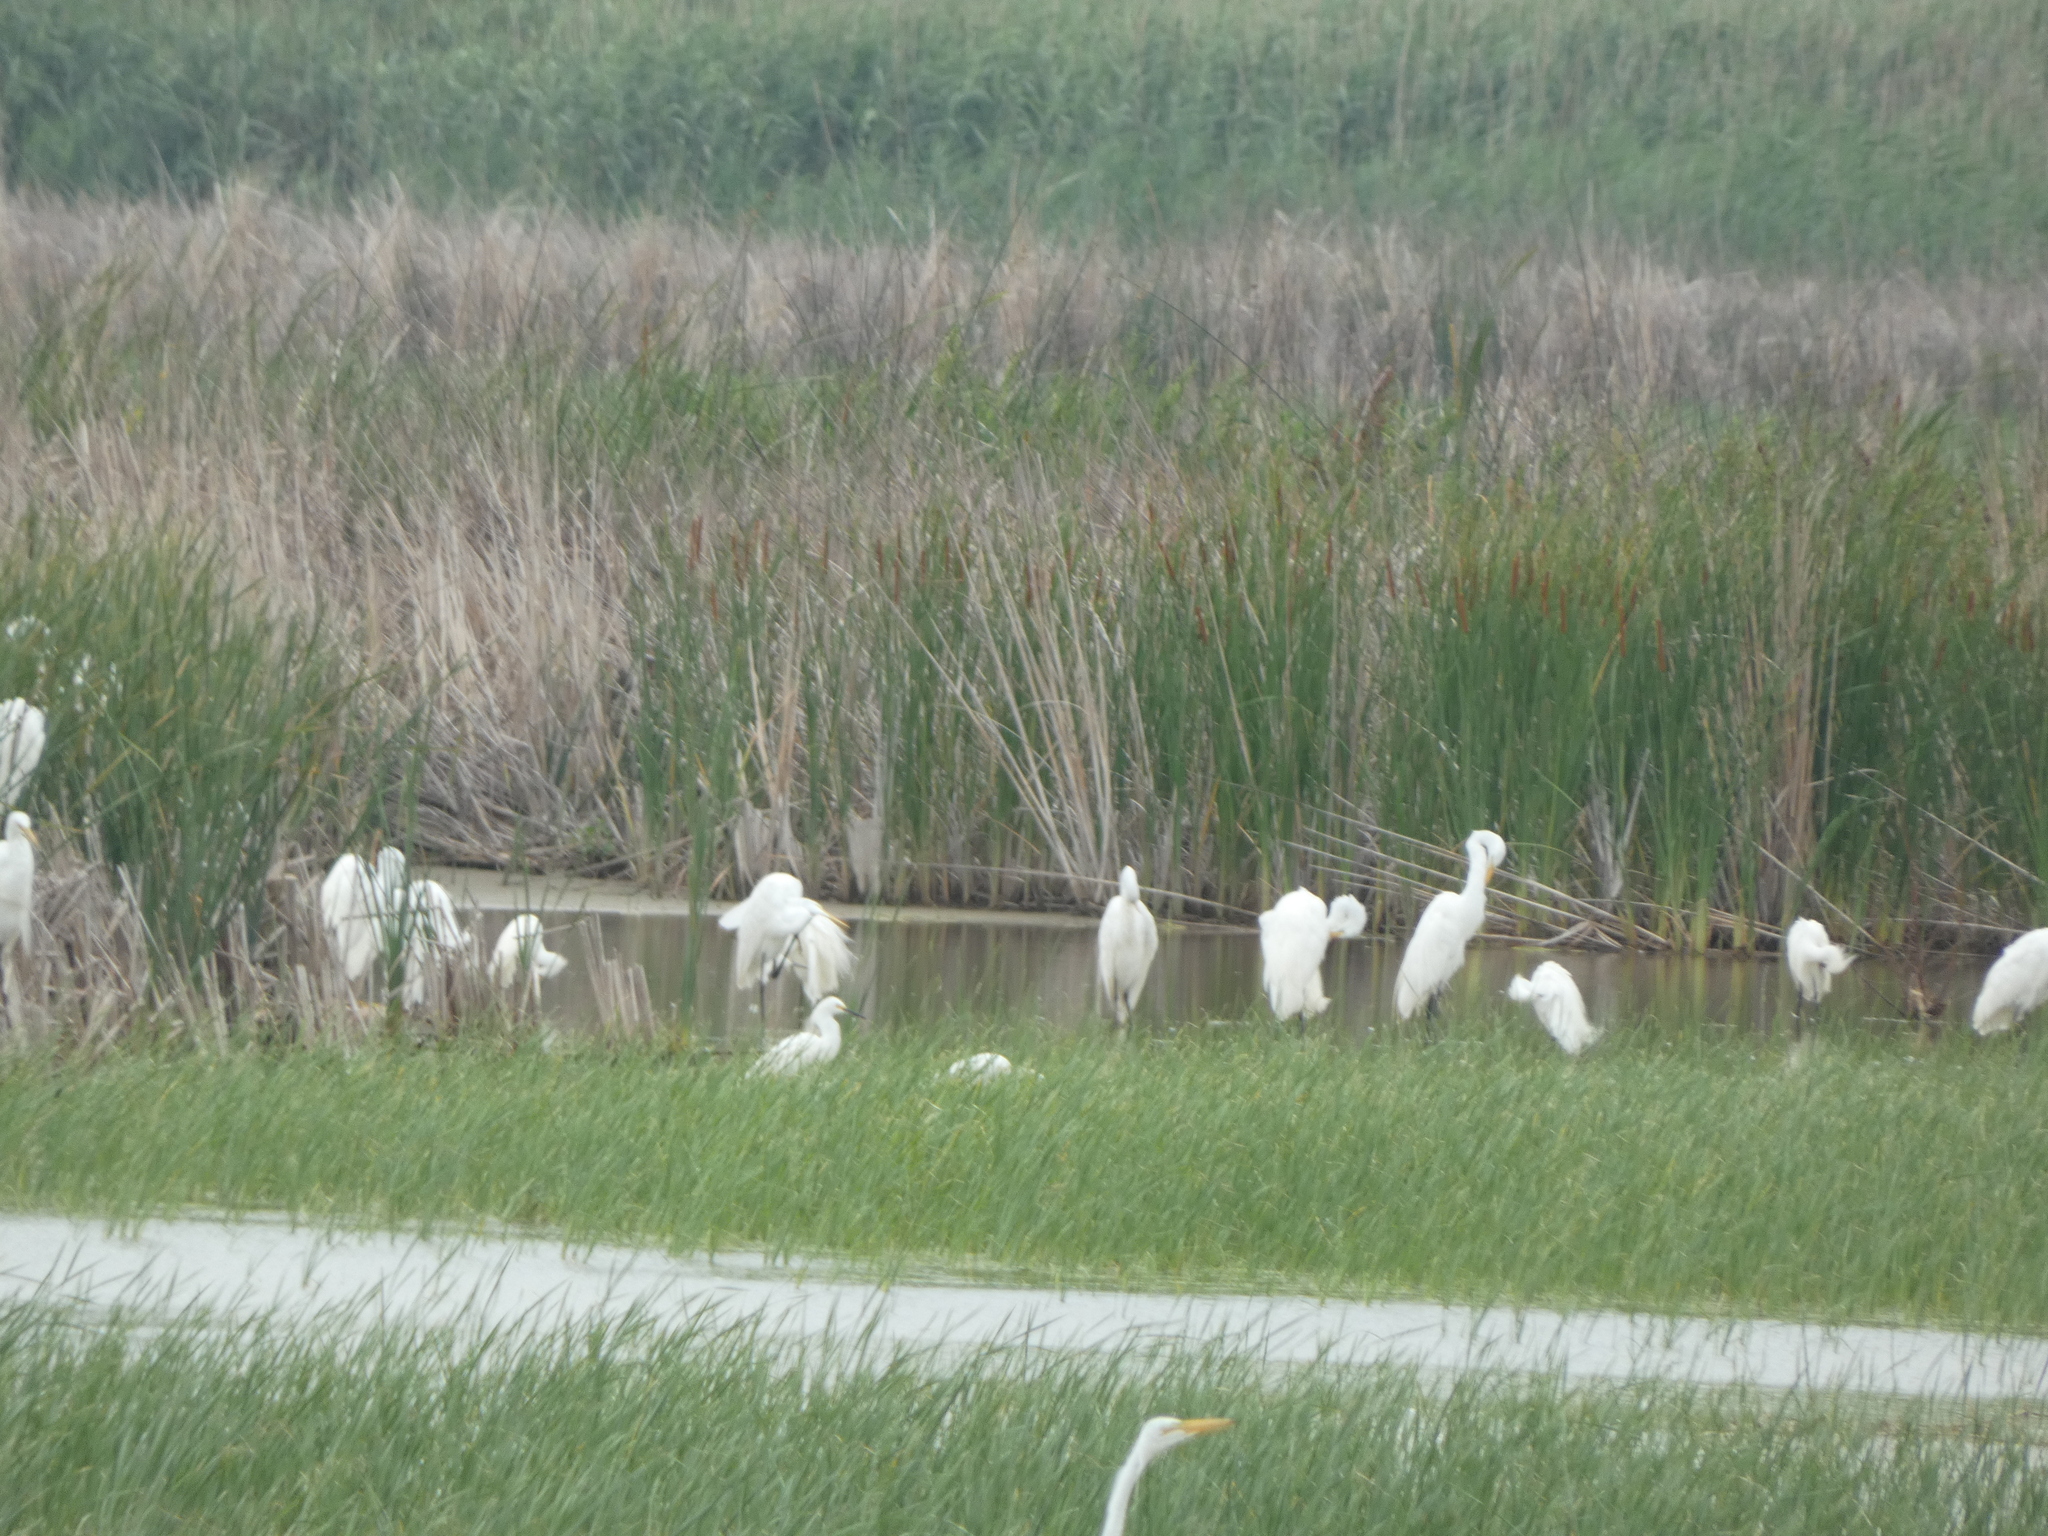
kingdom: Animalia
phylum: Chordata
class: Aves
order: Pelecaniformes
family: Ardeidae
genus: Bubulcus
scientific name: Bubulcus ibis
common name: Cattle egret
